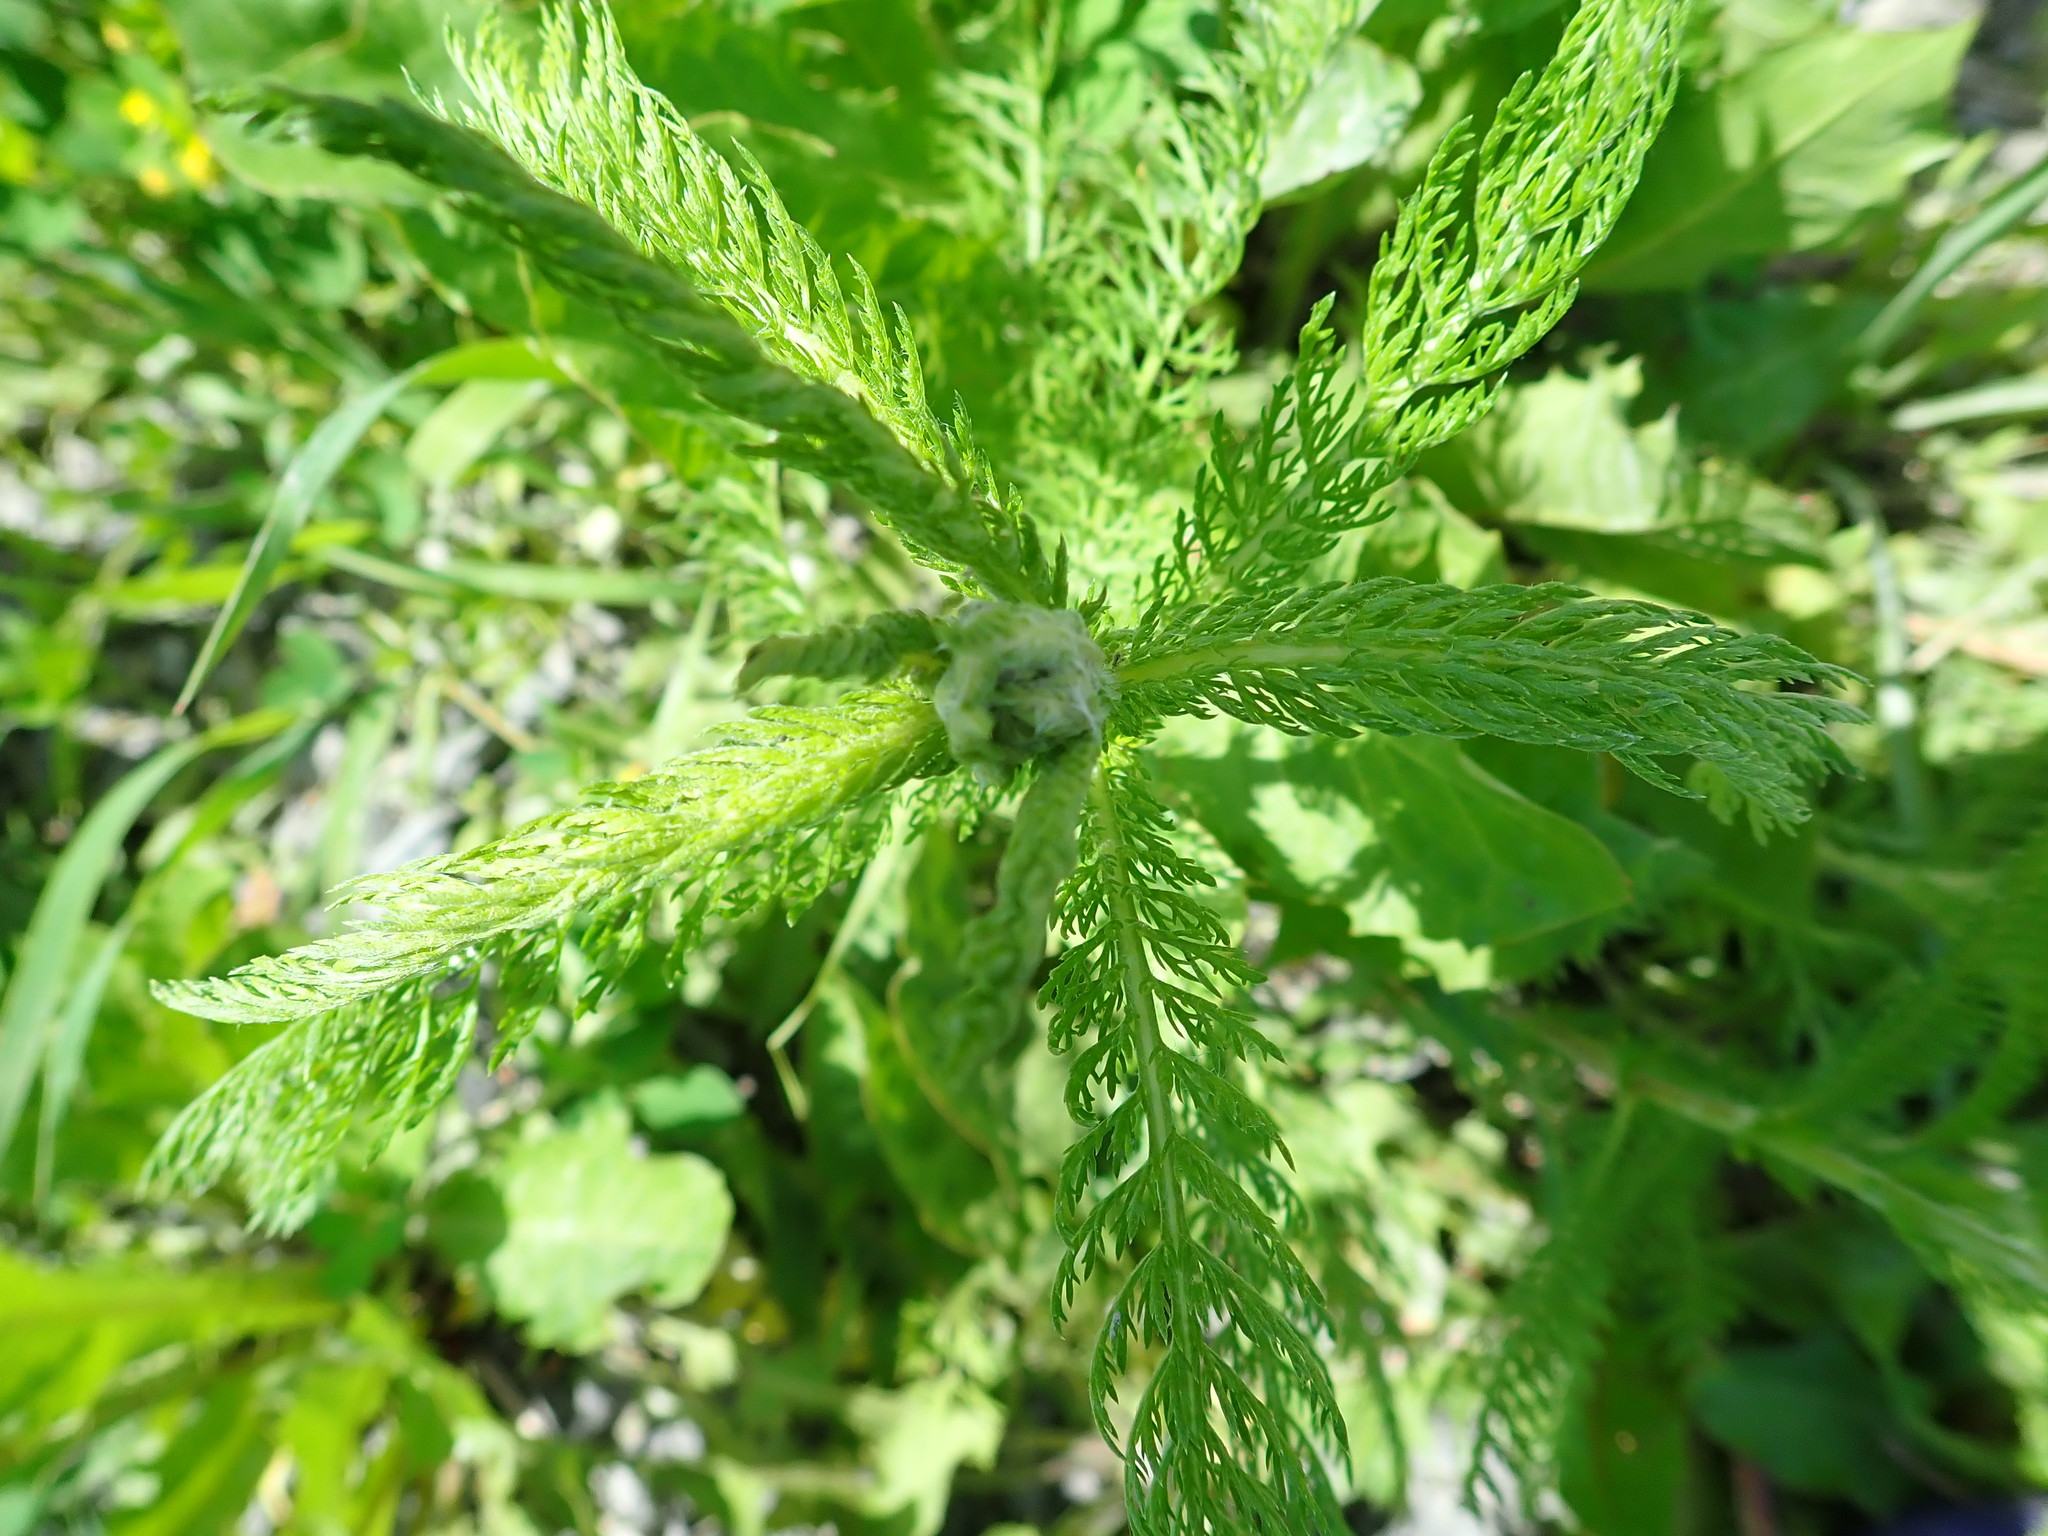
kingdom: Plantae
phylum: Tracheophyta
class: Magnoliopsida
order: Asterales
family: Asteraceae
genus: Achillea
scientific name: Achillea millefolium
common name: Yarrow
